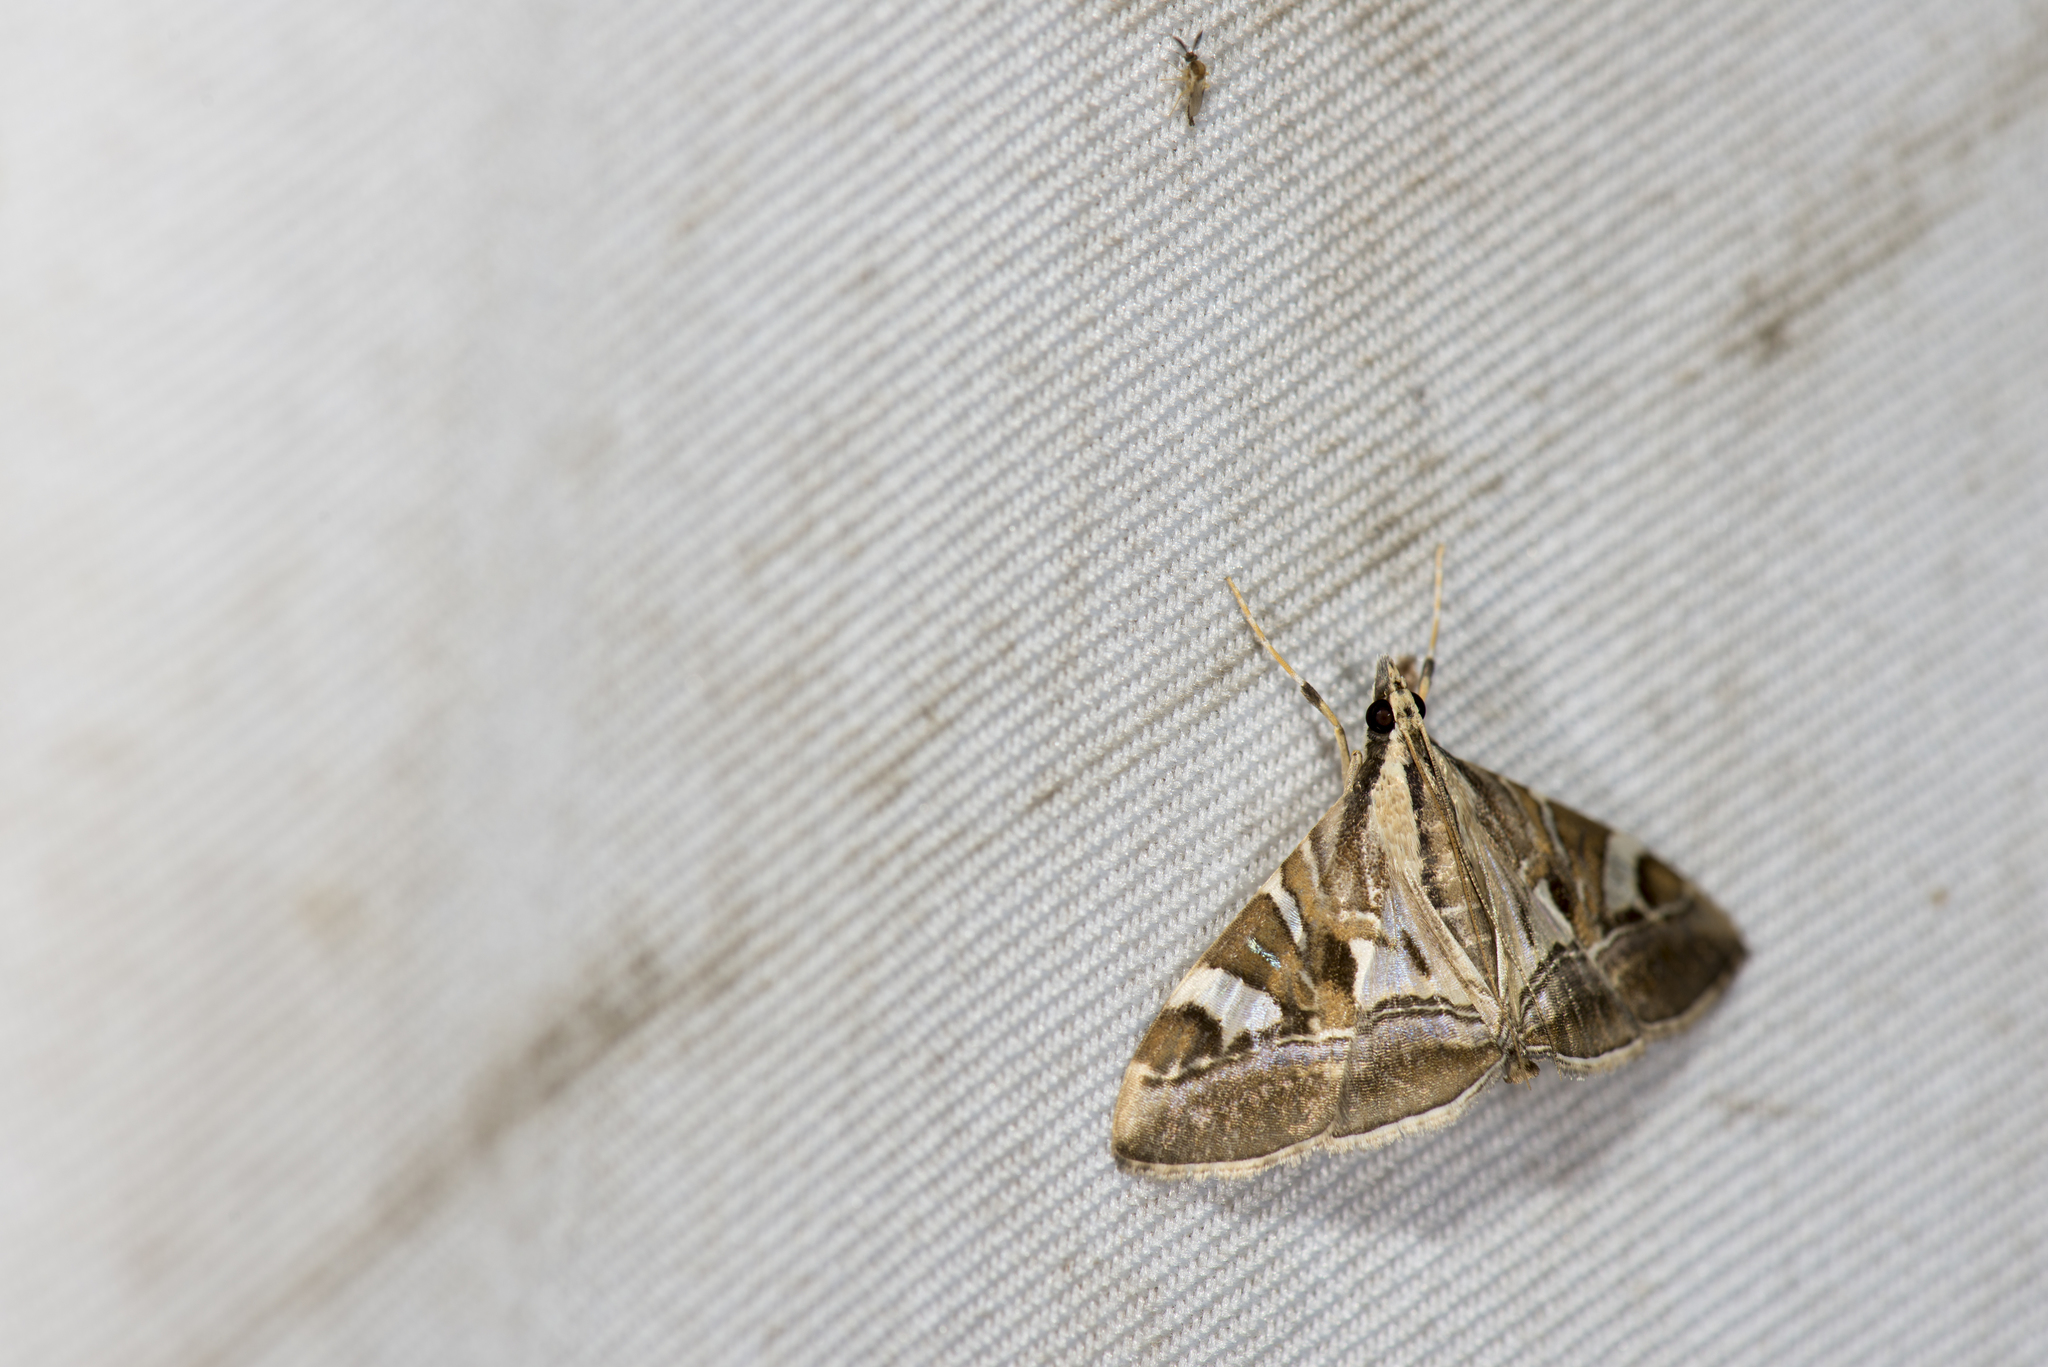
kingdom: Animalia
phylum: Arthropoda
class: Insecta
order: Lepidoptera
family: Crambidae
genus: Agrioglypta
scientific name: Agrioglypta itysalis
